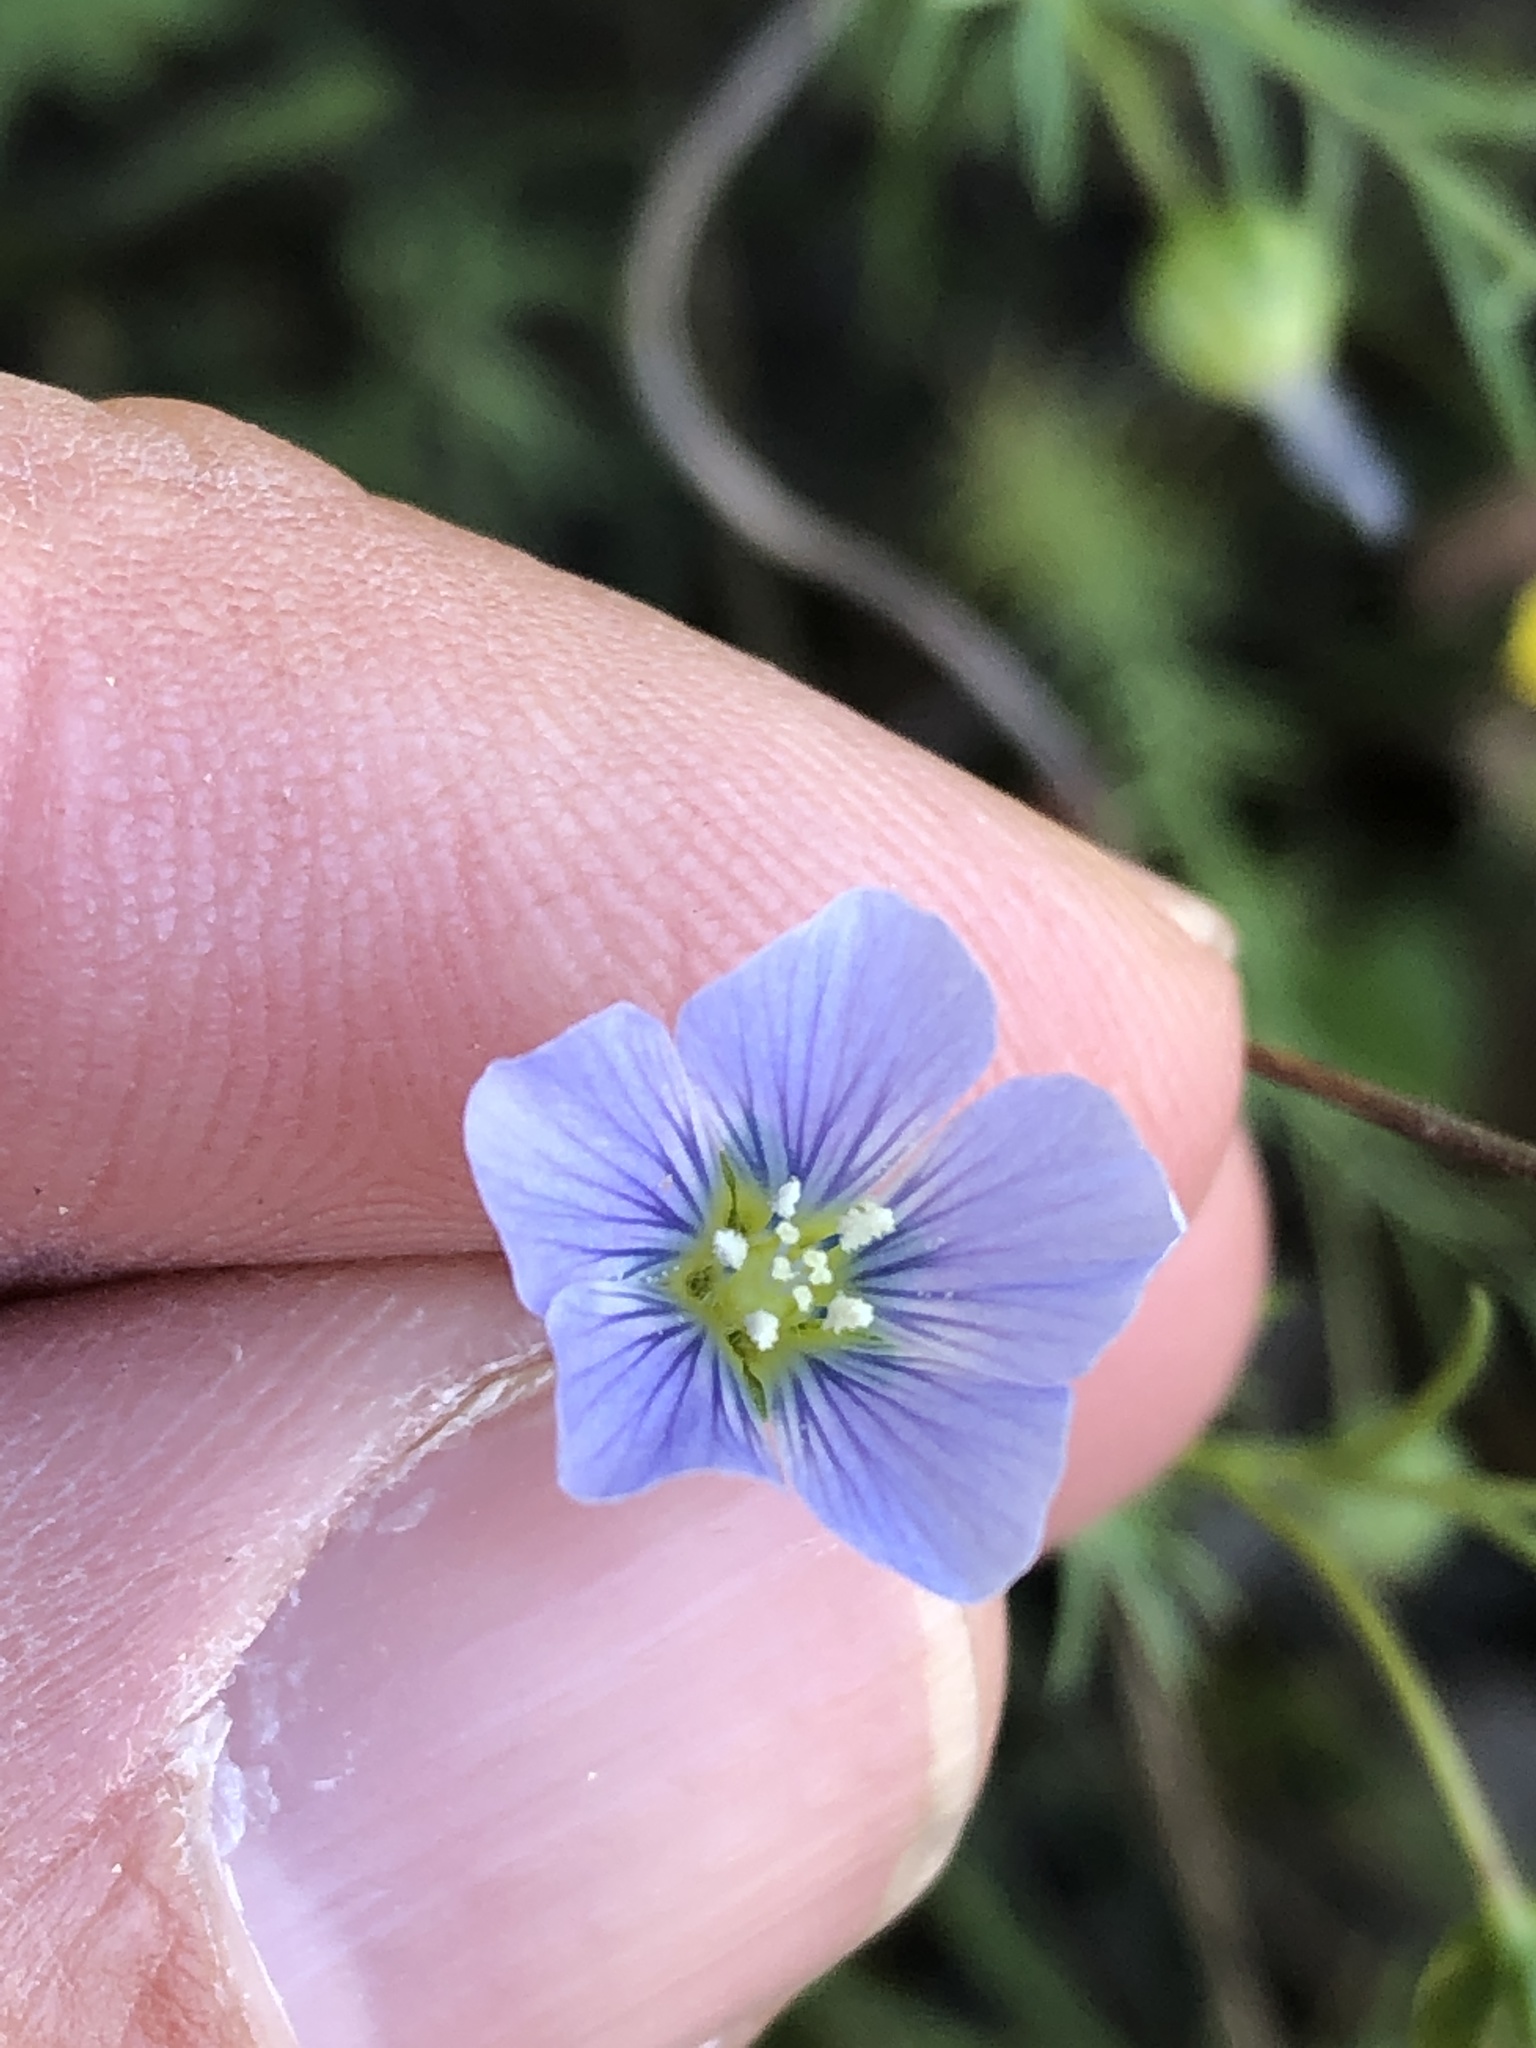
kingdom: Plantae
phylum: Tracheophyta
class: Magnoliopsida
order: Malpighiales
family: Linaceae
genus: Linum
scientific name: Linum pratense
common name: Norton's flax
